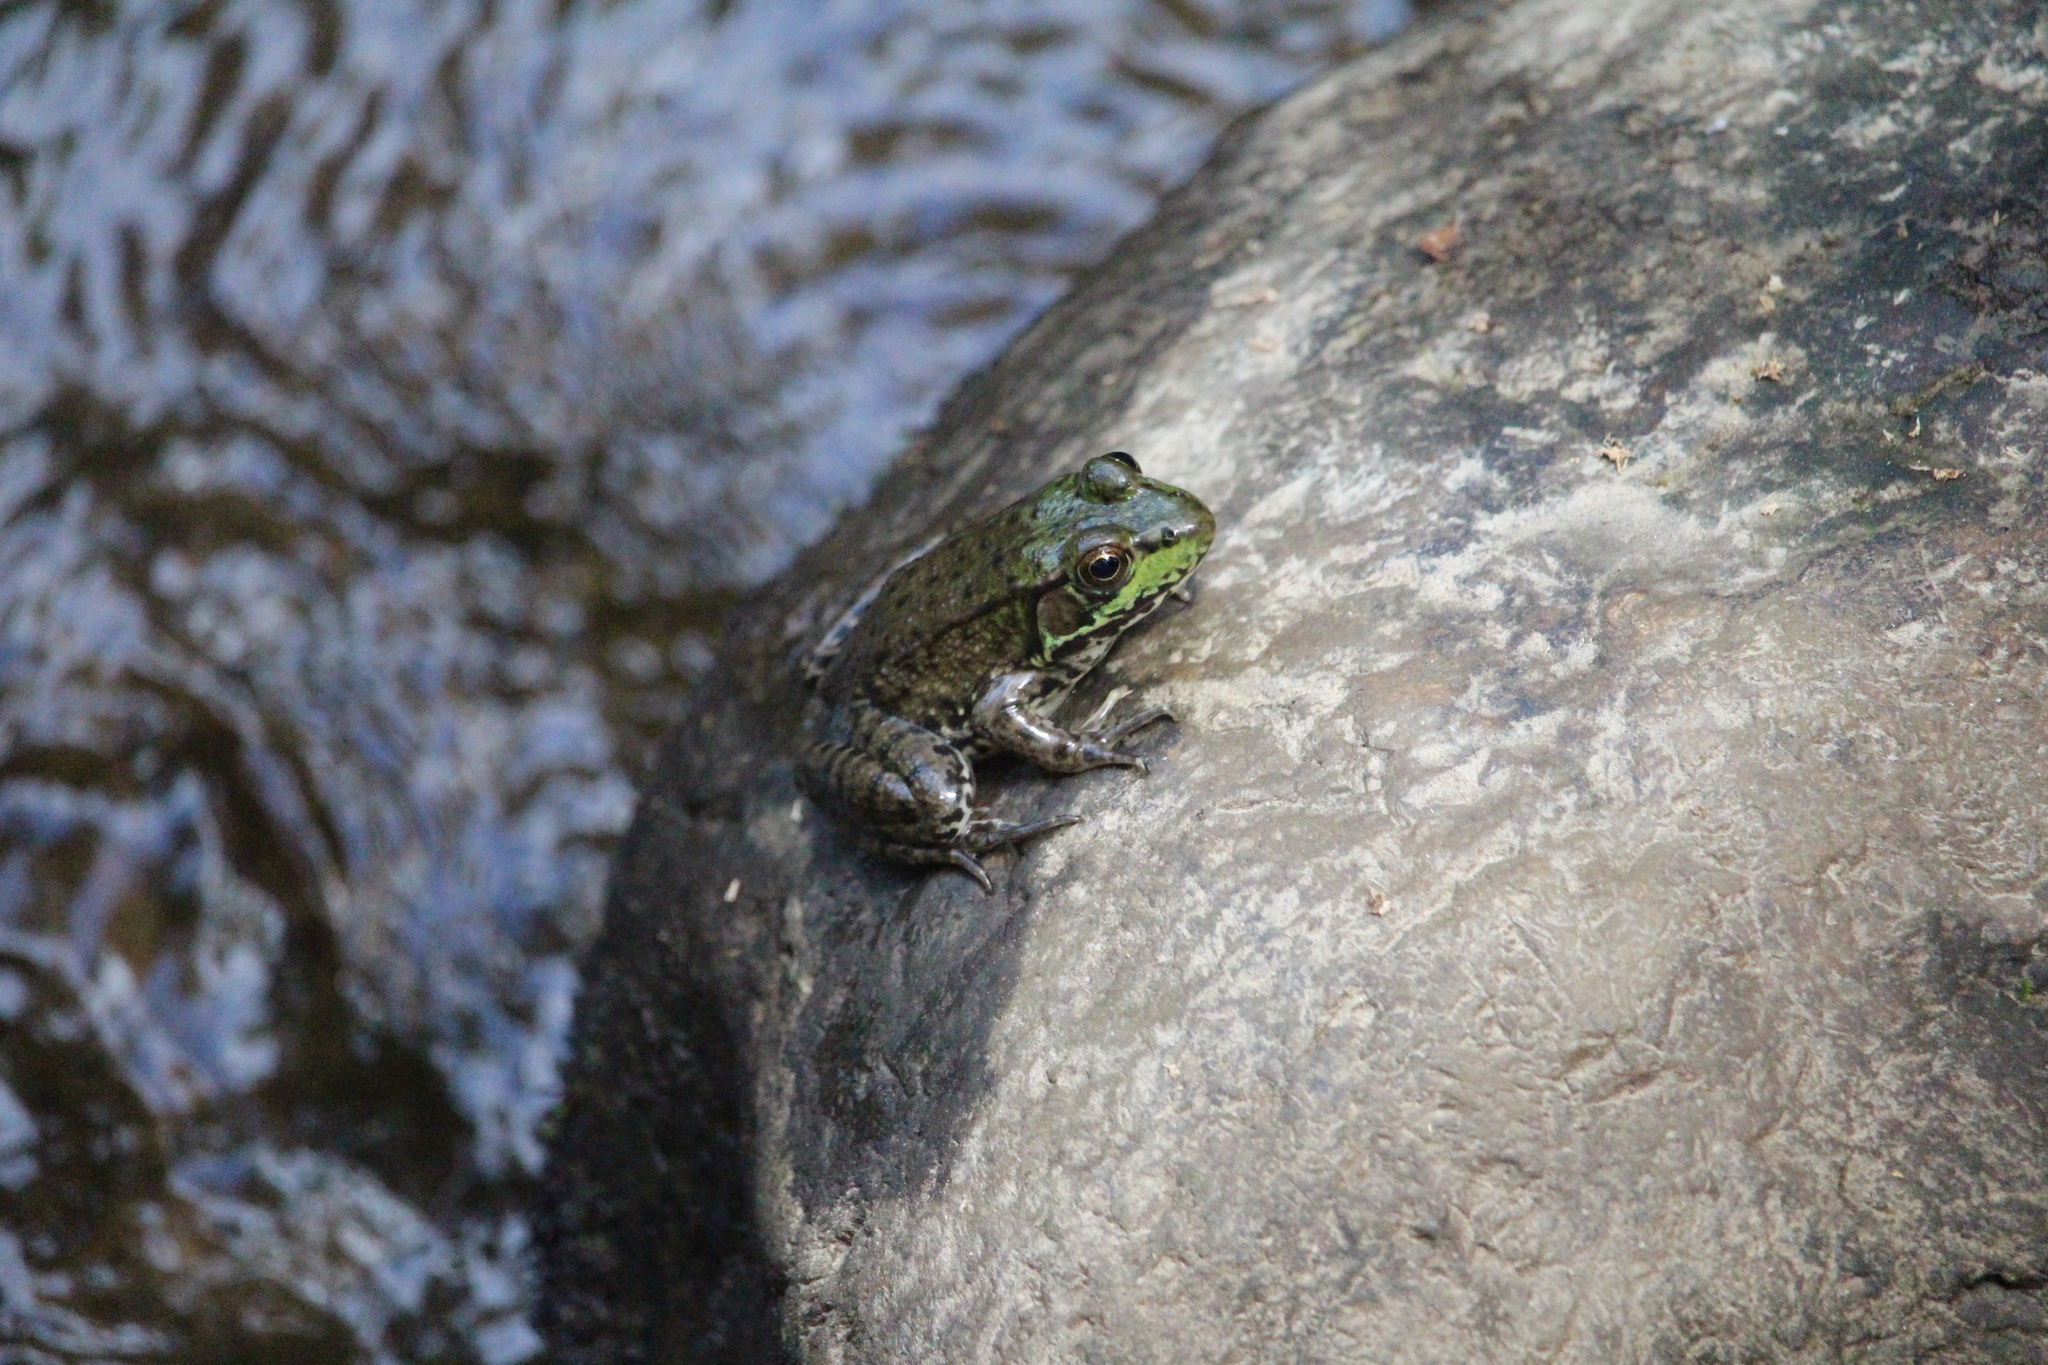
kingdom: Animalia
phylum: Chordata
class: Amphibia
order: Anura
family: Ranidae
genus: Lithobates
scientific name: Lithobates clamitans
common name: Green frog
